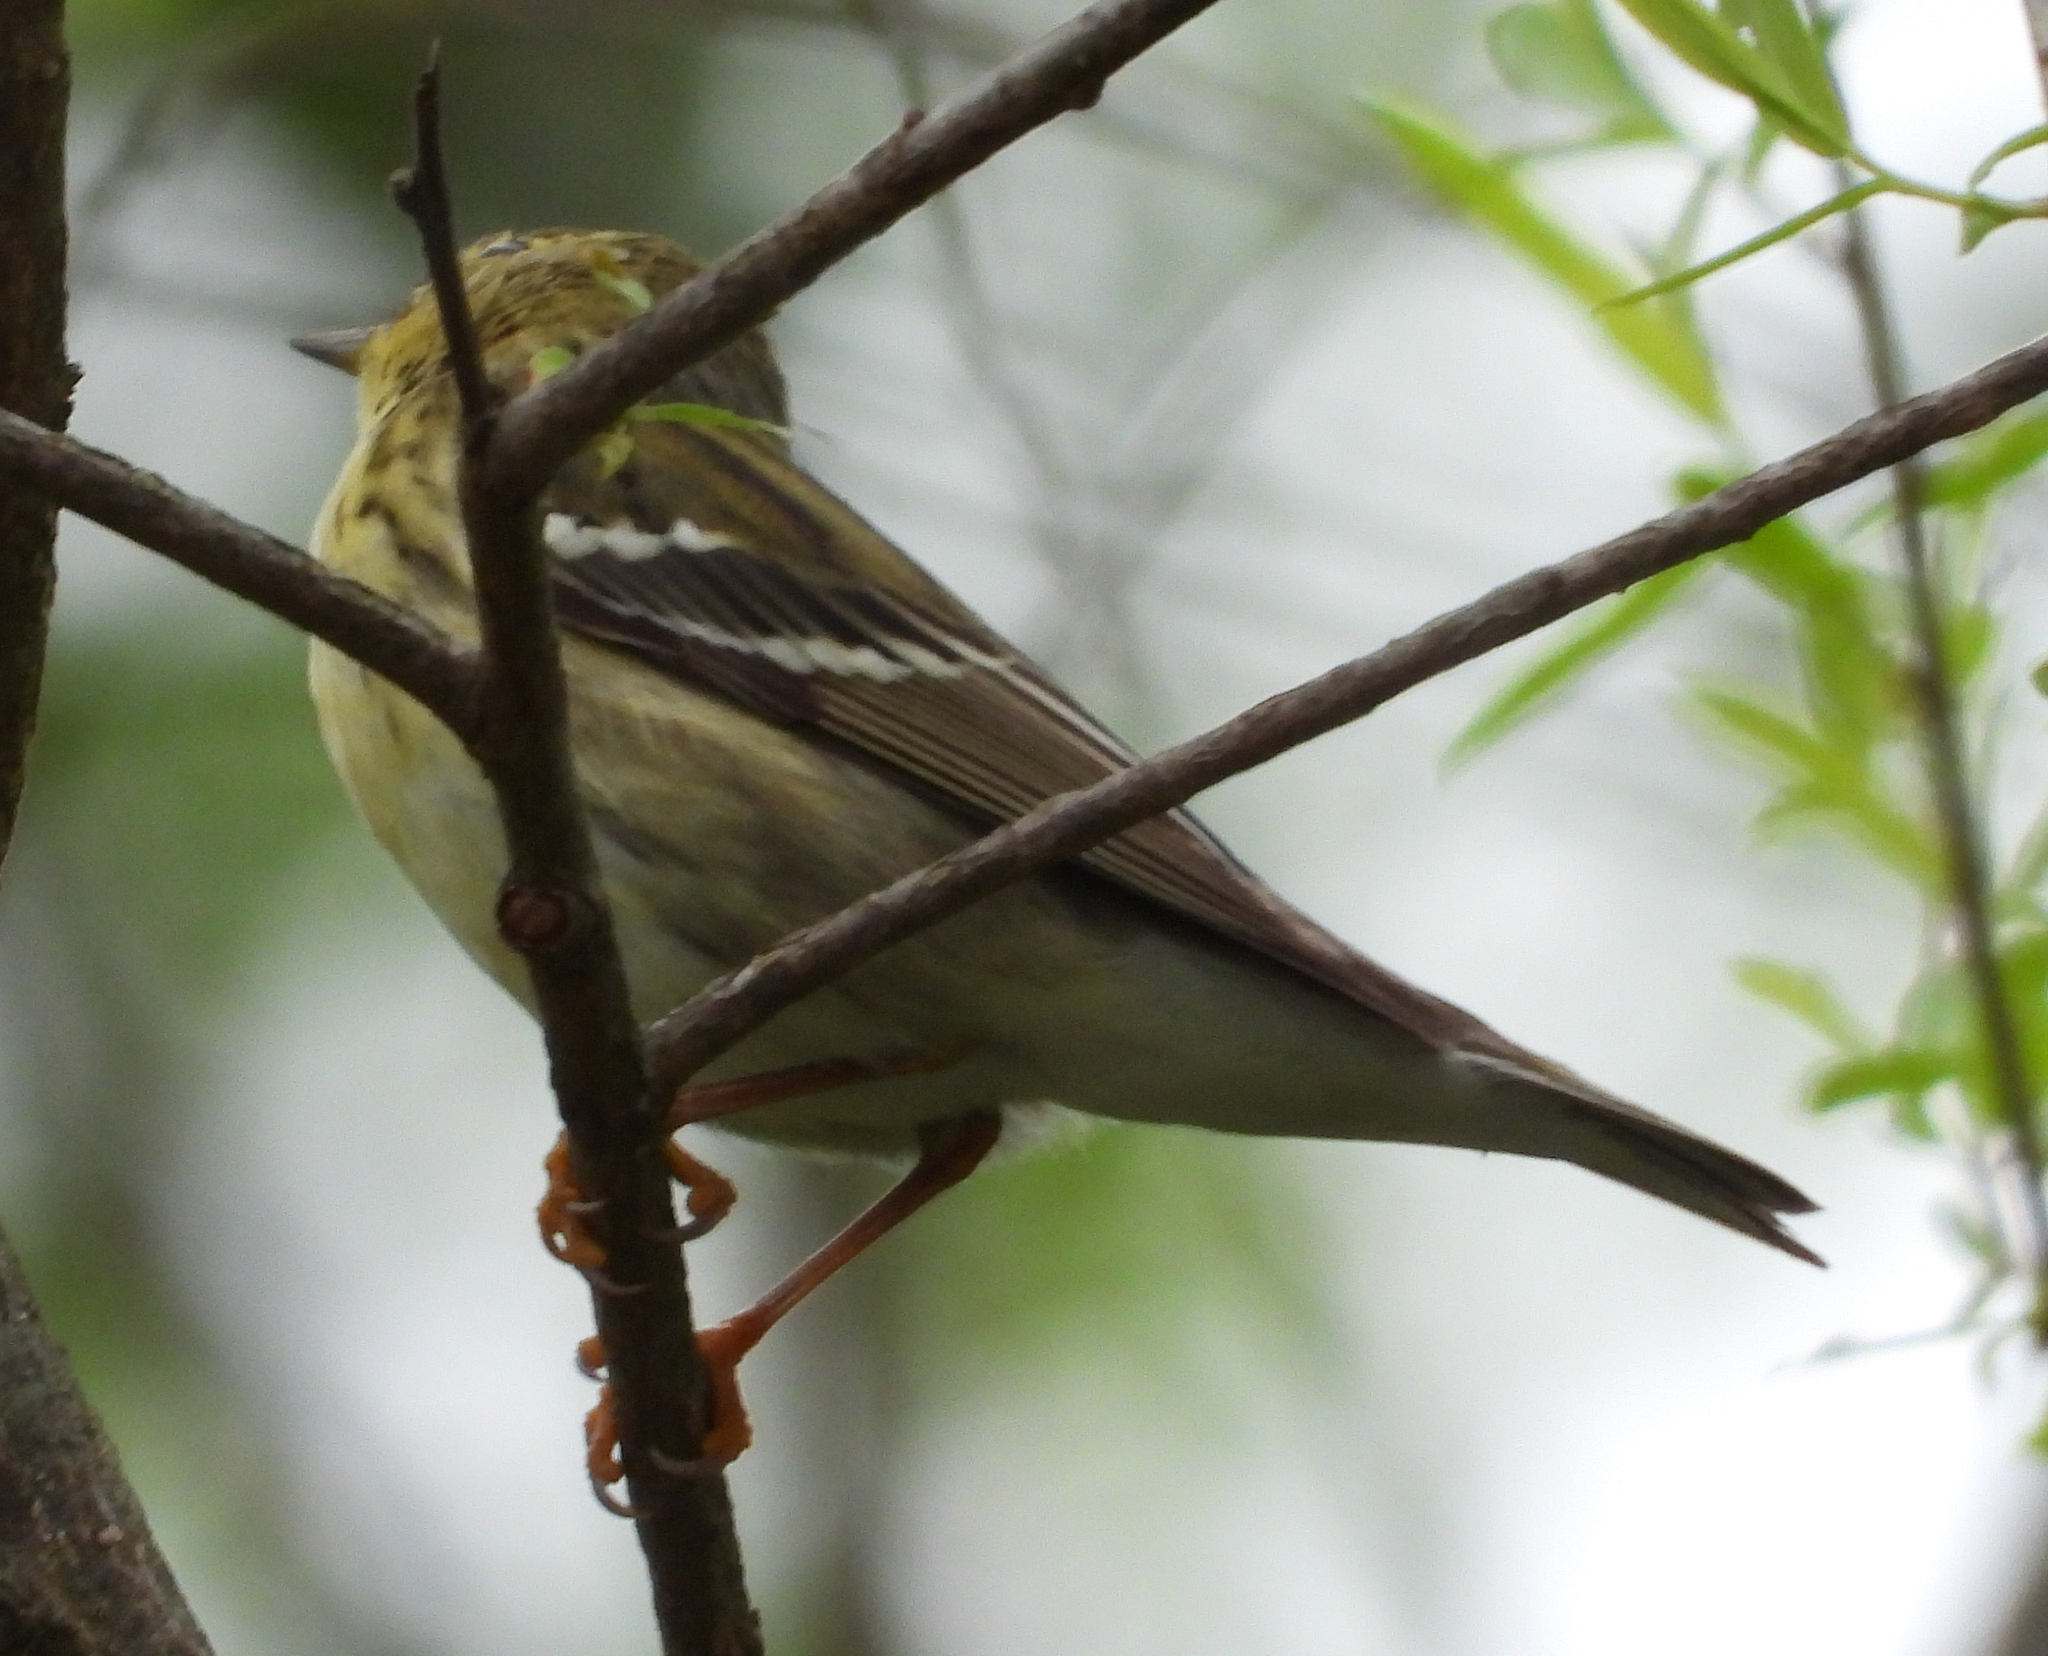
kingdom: Animalia
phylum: Chordata
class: Aves
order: Passeriformes
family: Parulidae
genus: Setophaga
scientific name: Setophaga striata
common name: Blackpoll warbler
